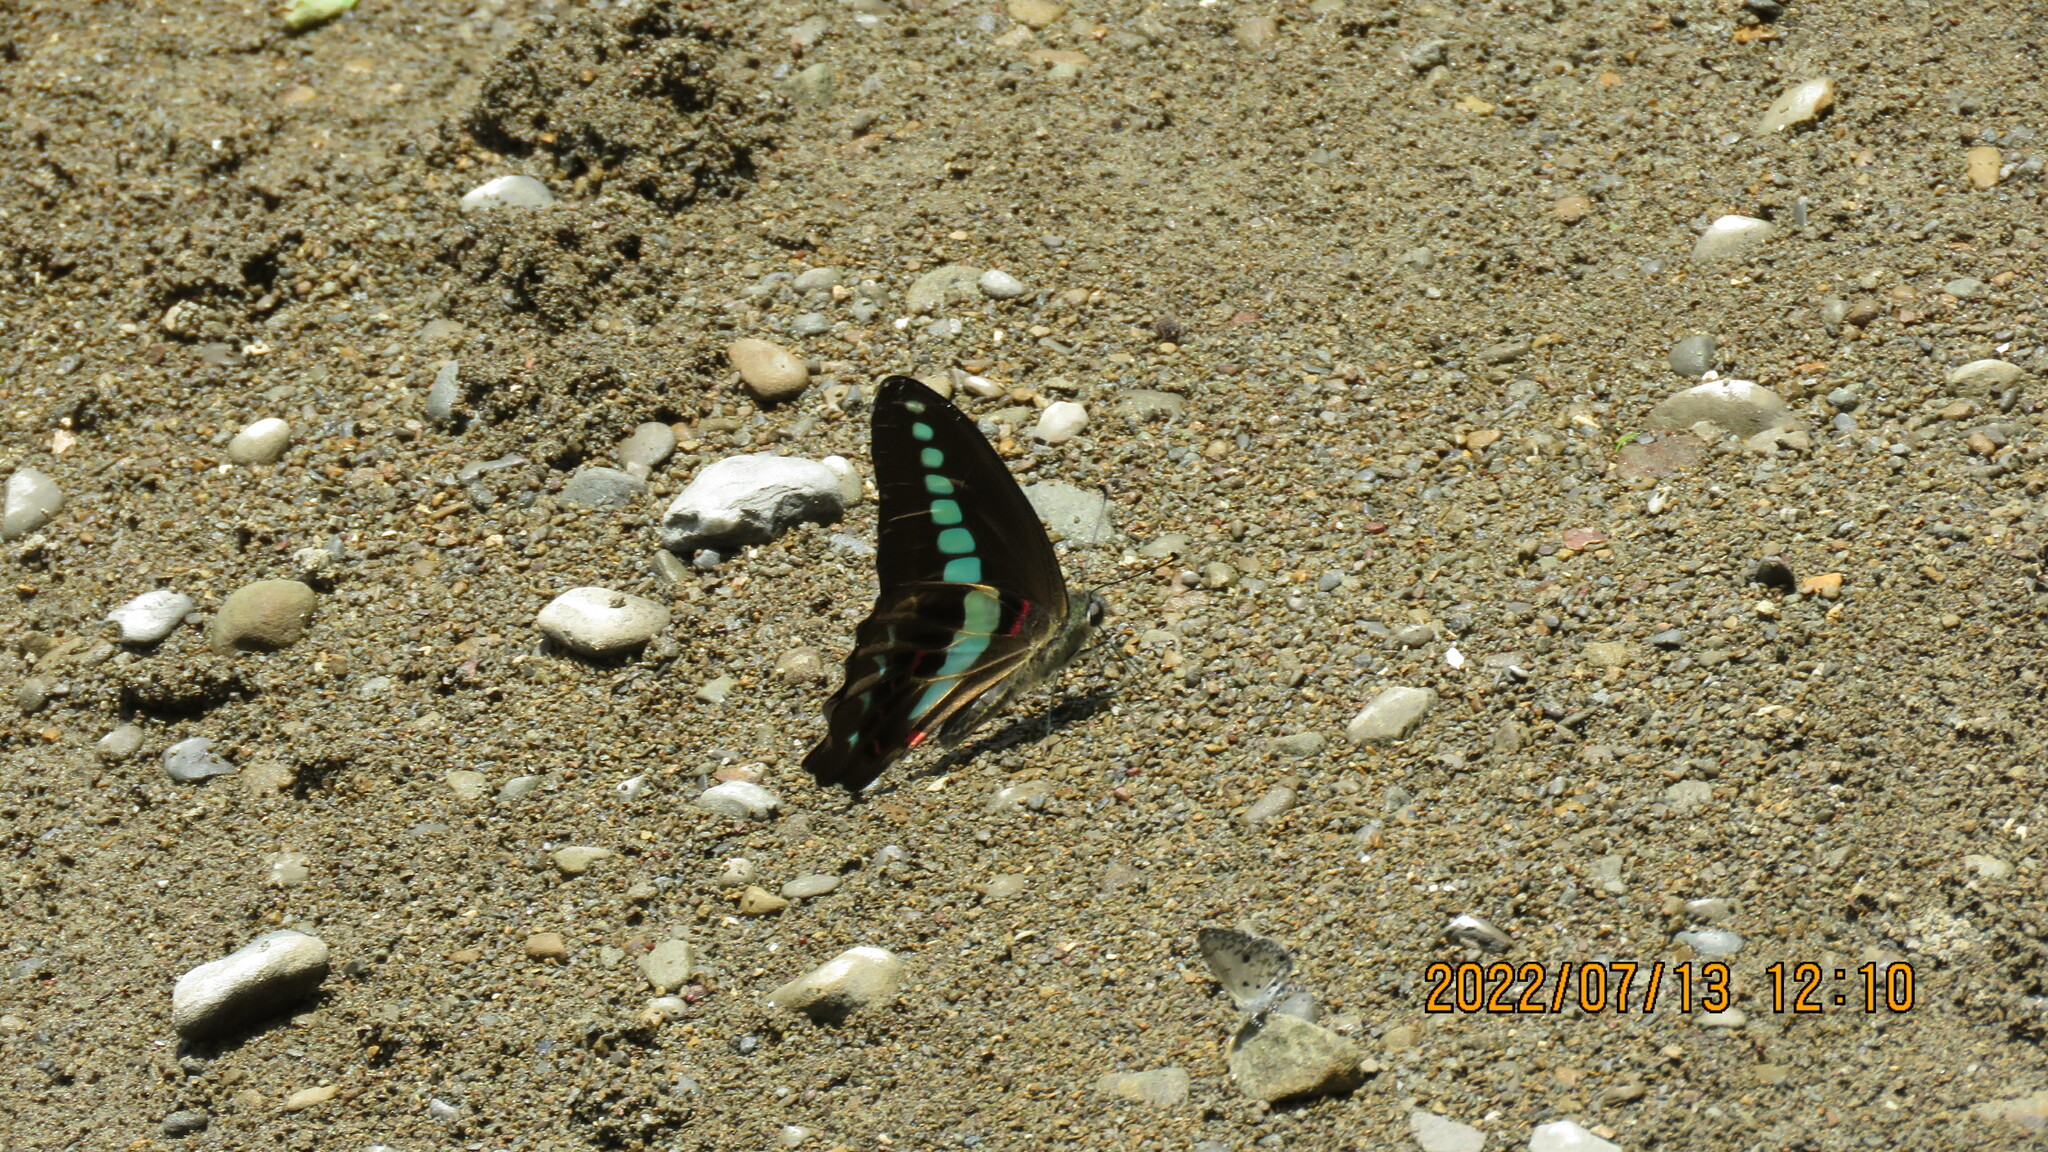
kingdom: Fungi
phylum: Ascomycota
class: Sordariomycetes
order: Microascales
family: Microascaceae
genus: Graphium
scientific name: Graphium sarpedon
